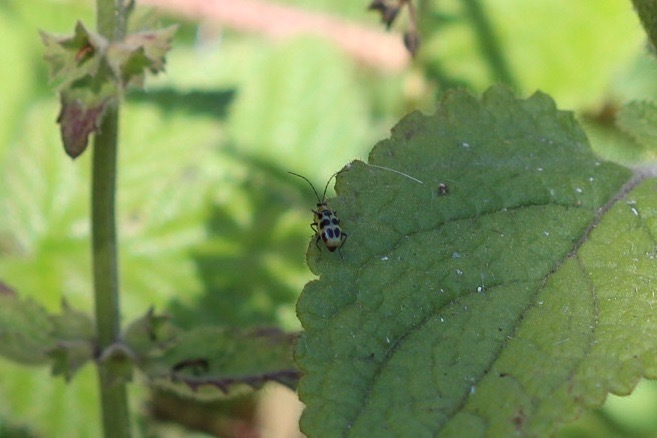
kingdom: Animalia
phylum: Arthropoda
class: Insecta
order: Coleoptera
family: Chrysomelidae
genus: Diabrotica
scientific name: Diabrotica undecimpunctata
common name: Spotted cucumber beetle
